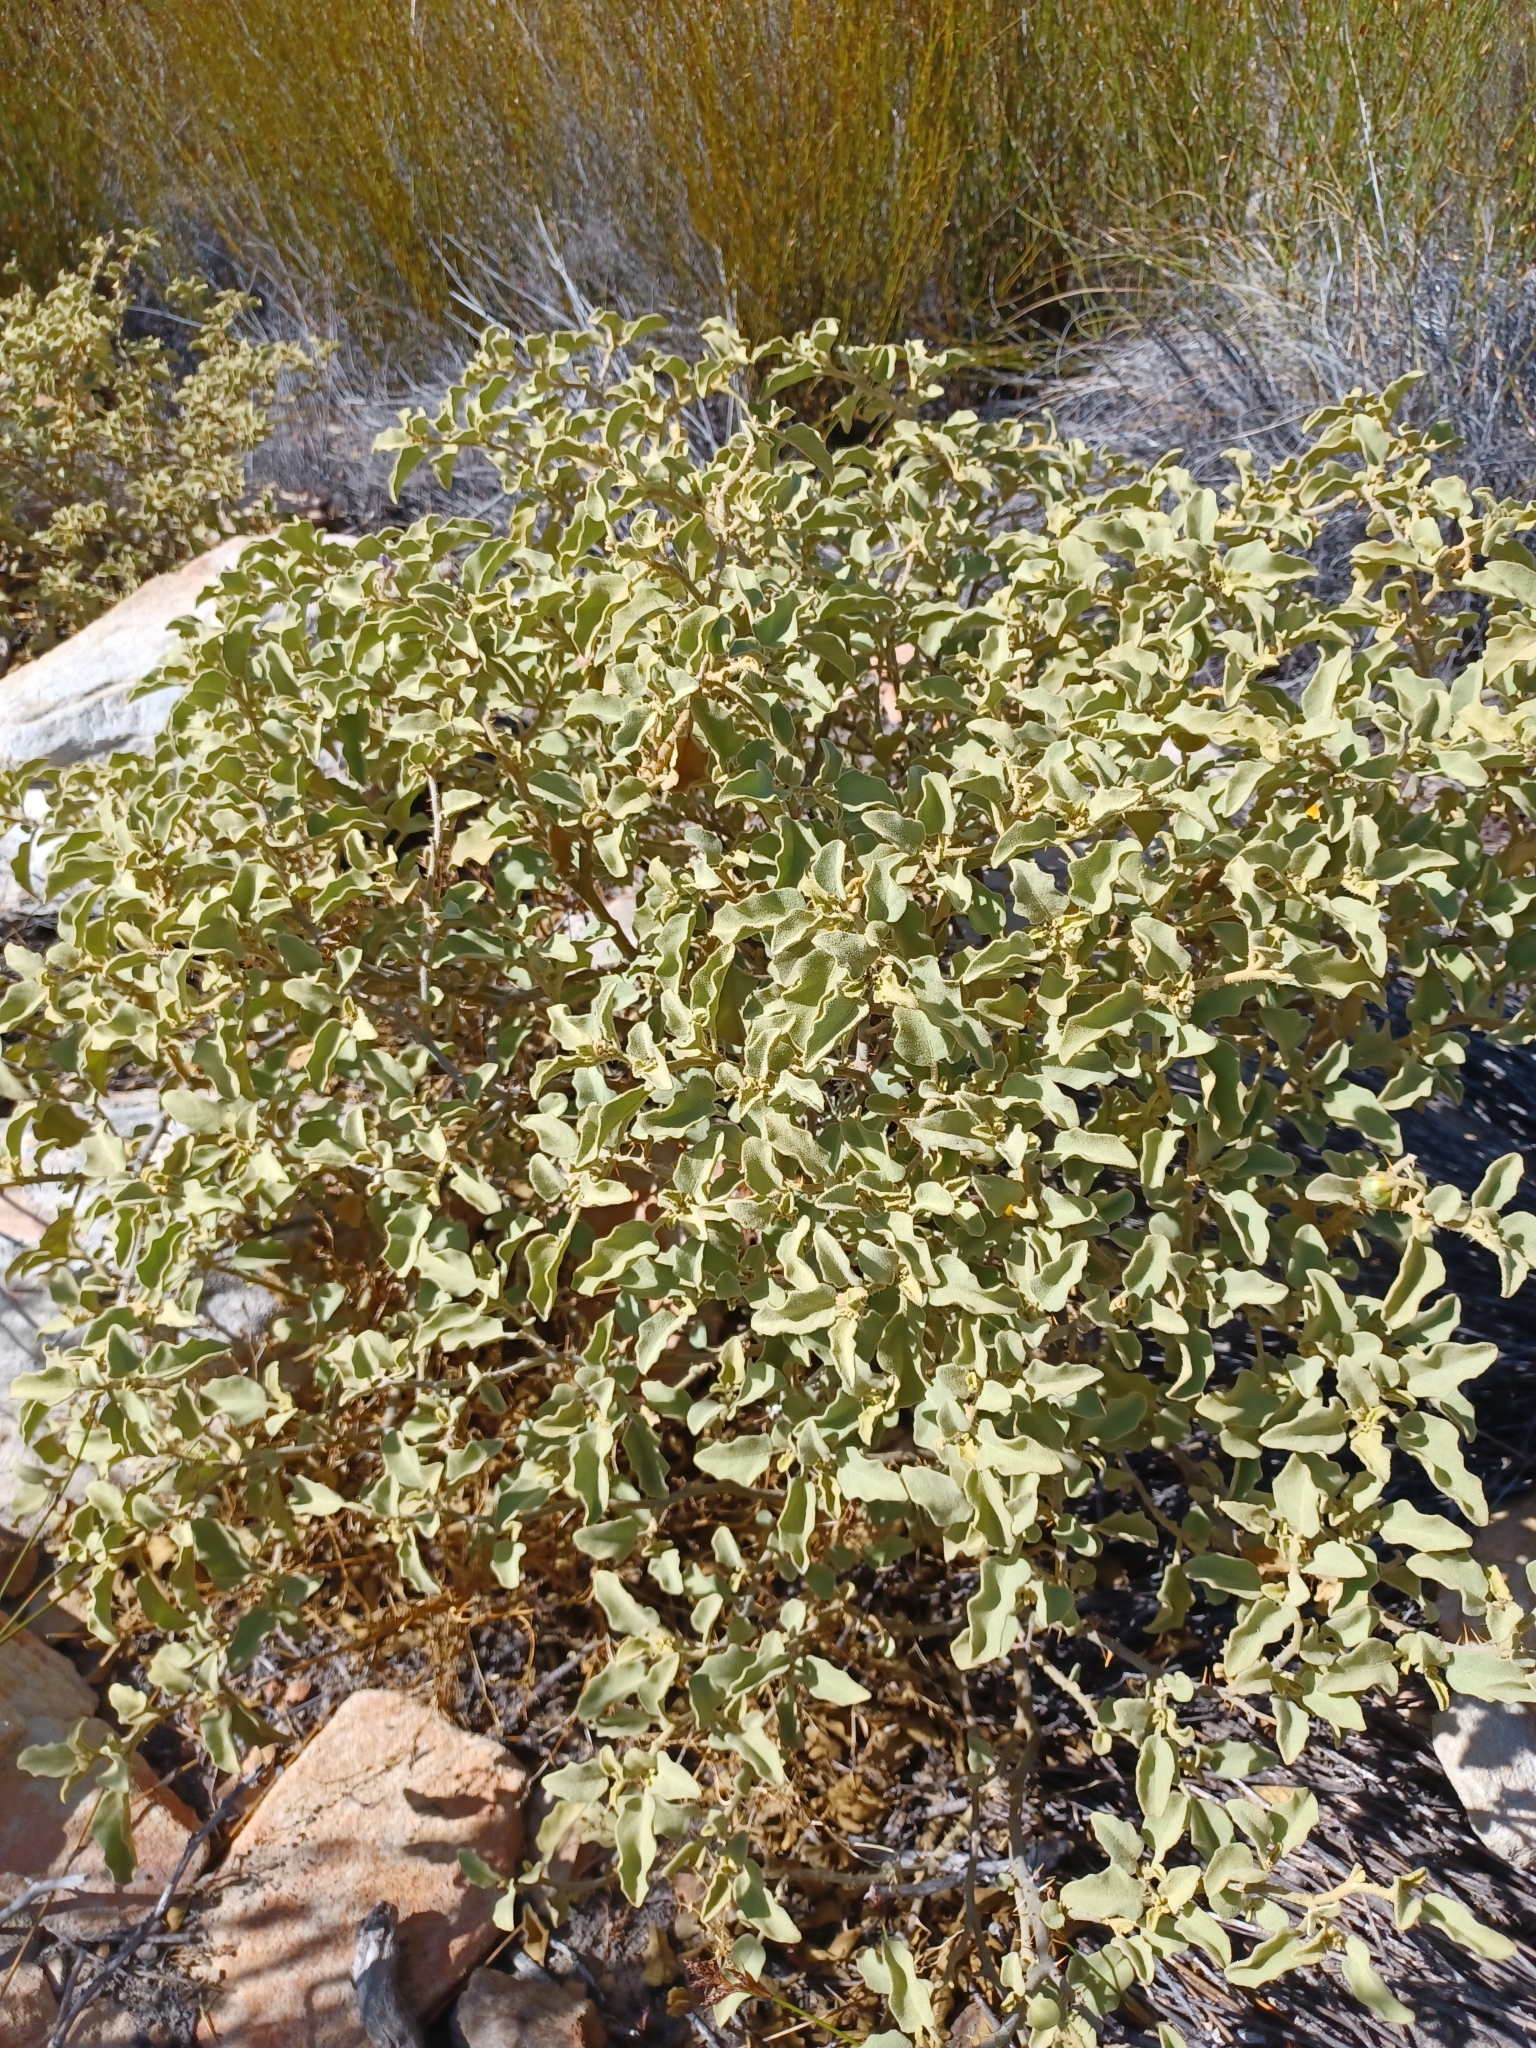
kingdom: Plantae
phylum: Tracheophyta
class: Magnoliopsida
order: Solanales
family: Solanaceae
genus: Solanum
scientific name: Solanum tomentosum
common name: Wild aubergine
